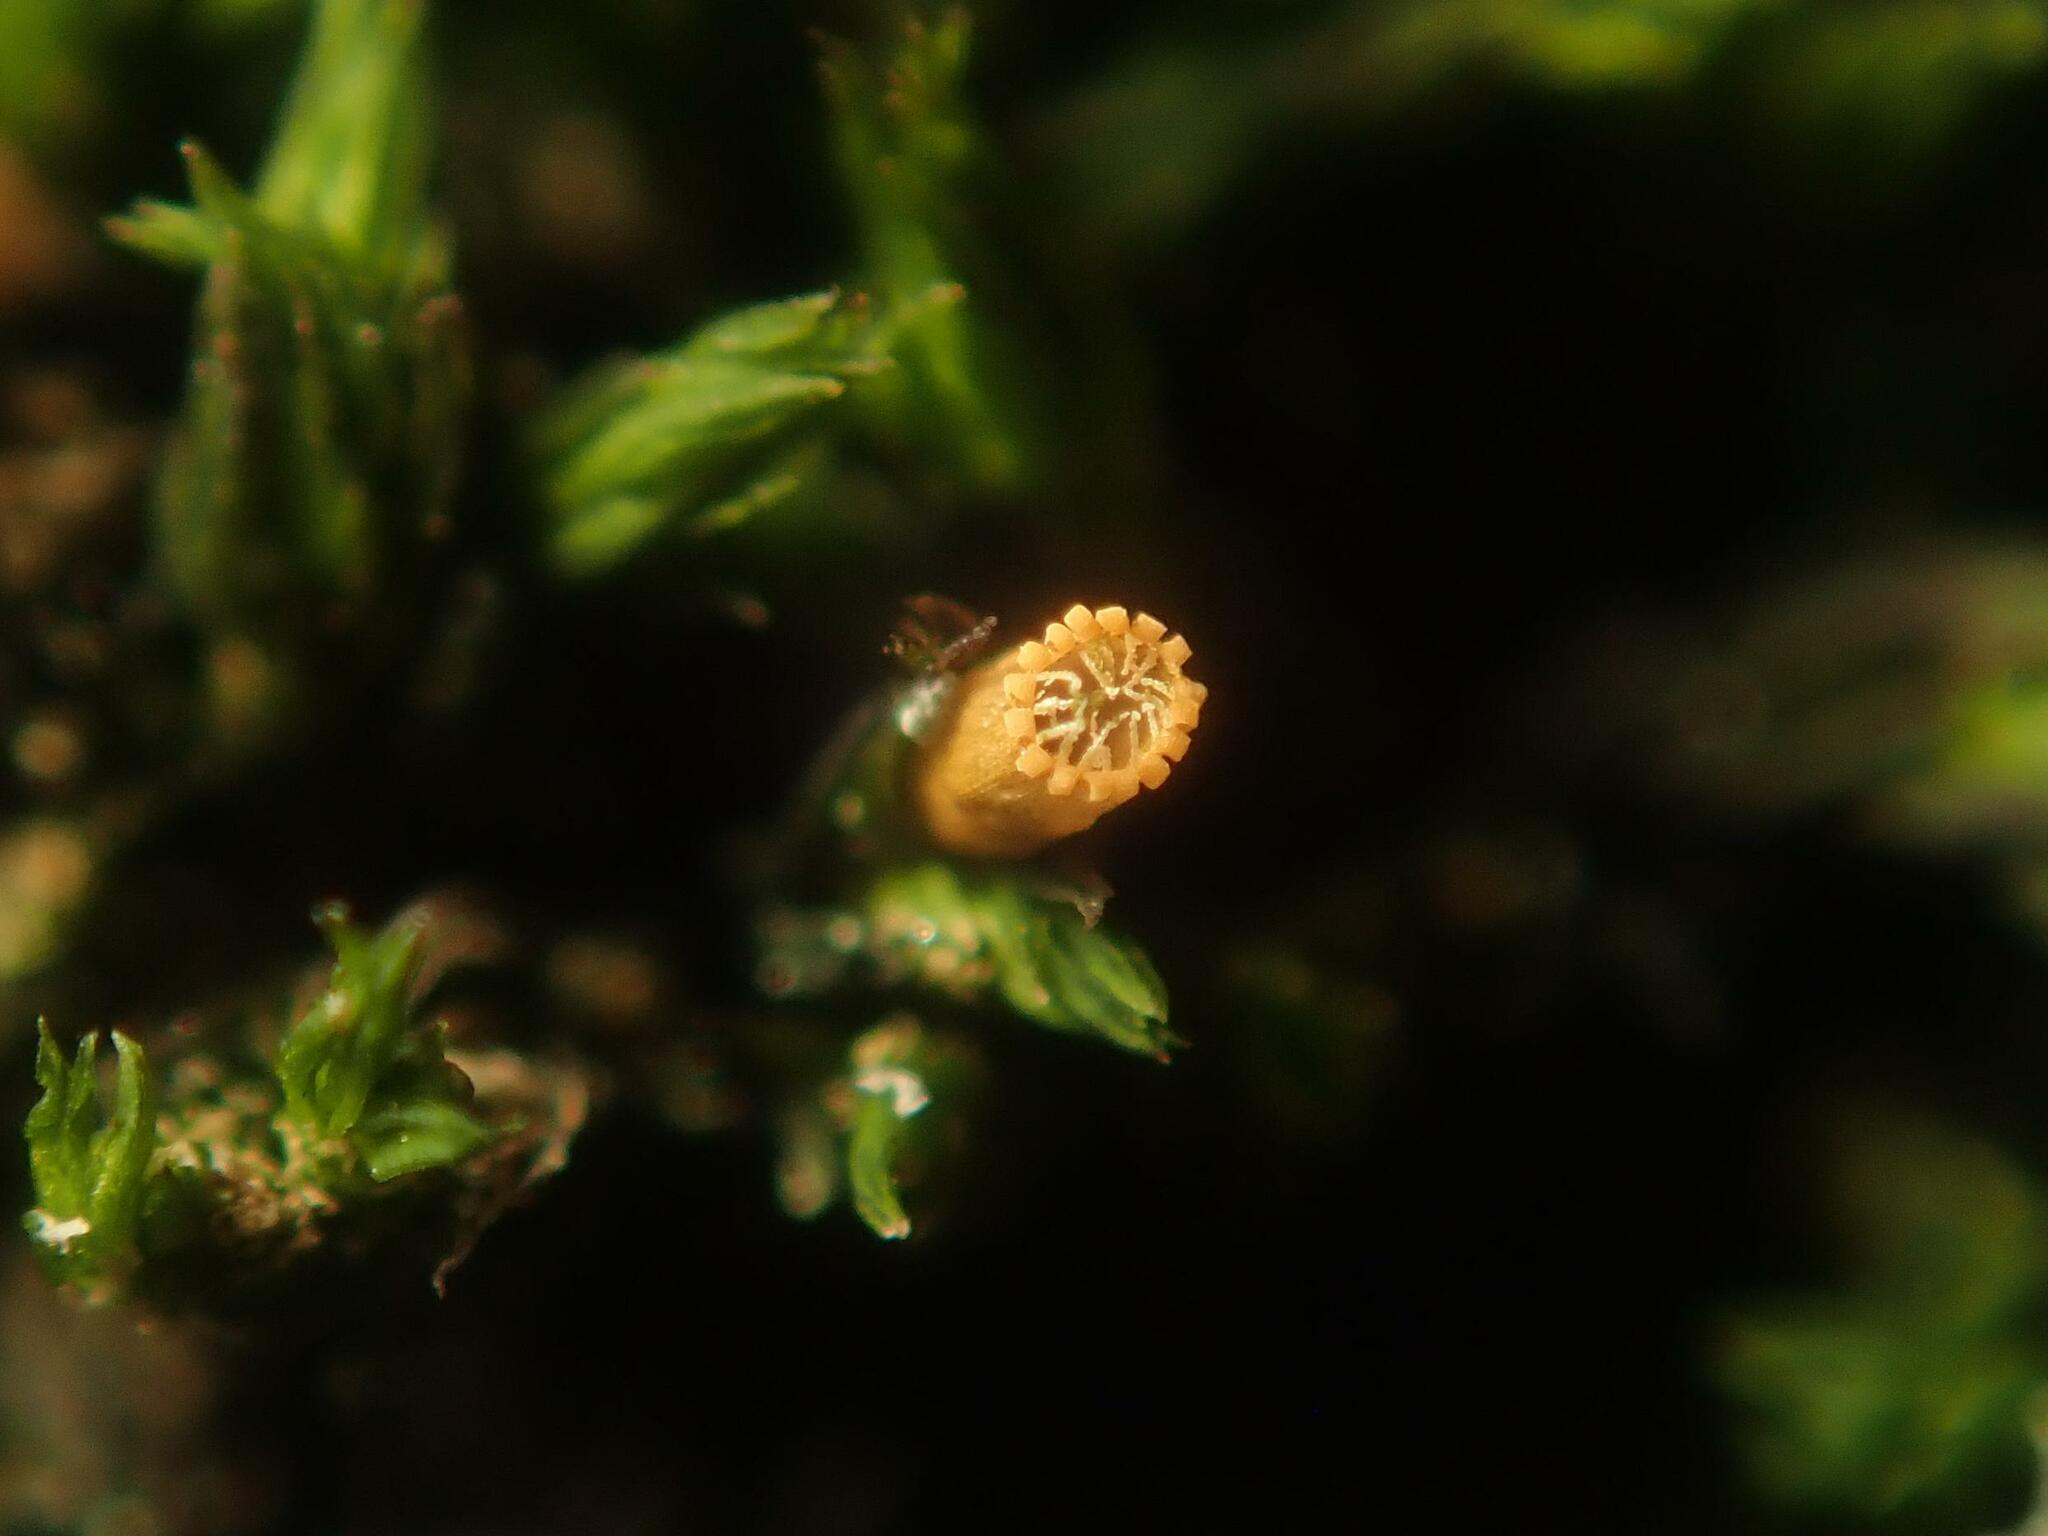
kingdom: Plantae
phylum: Bryophyta
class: Bryopsida
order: Orthotrichales
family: Orthotrichaceae
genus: Lewinskya
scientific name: Lewinskya striata
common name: Shaw's bristle-moss
